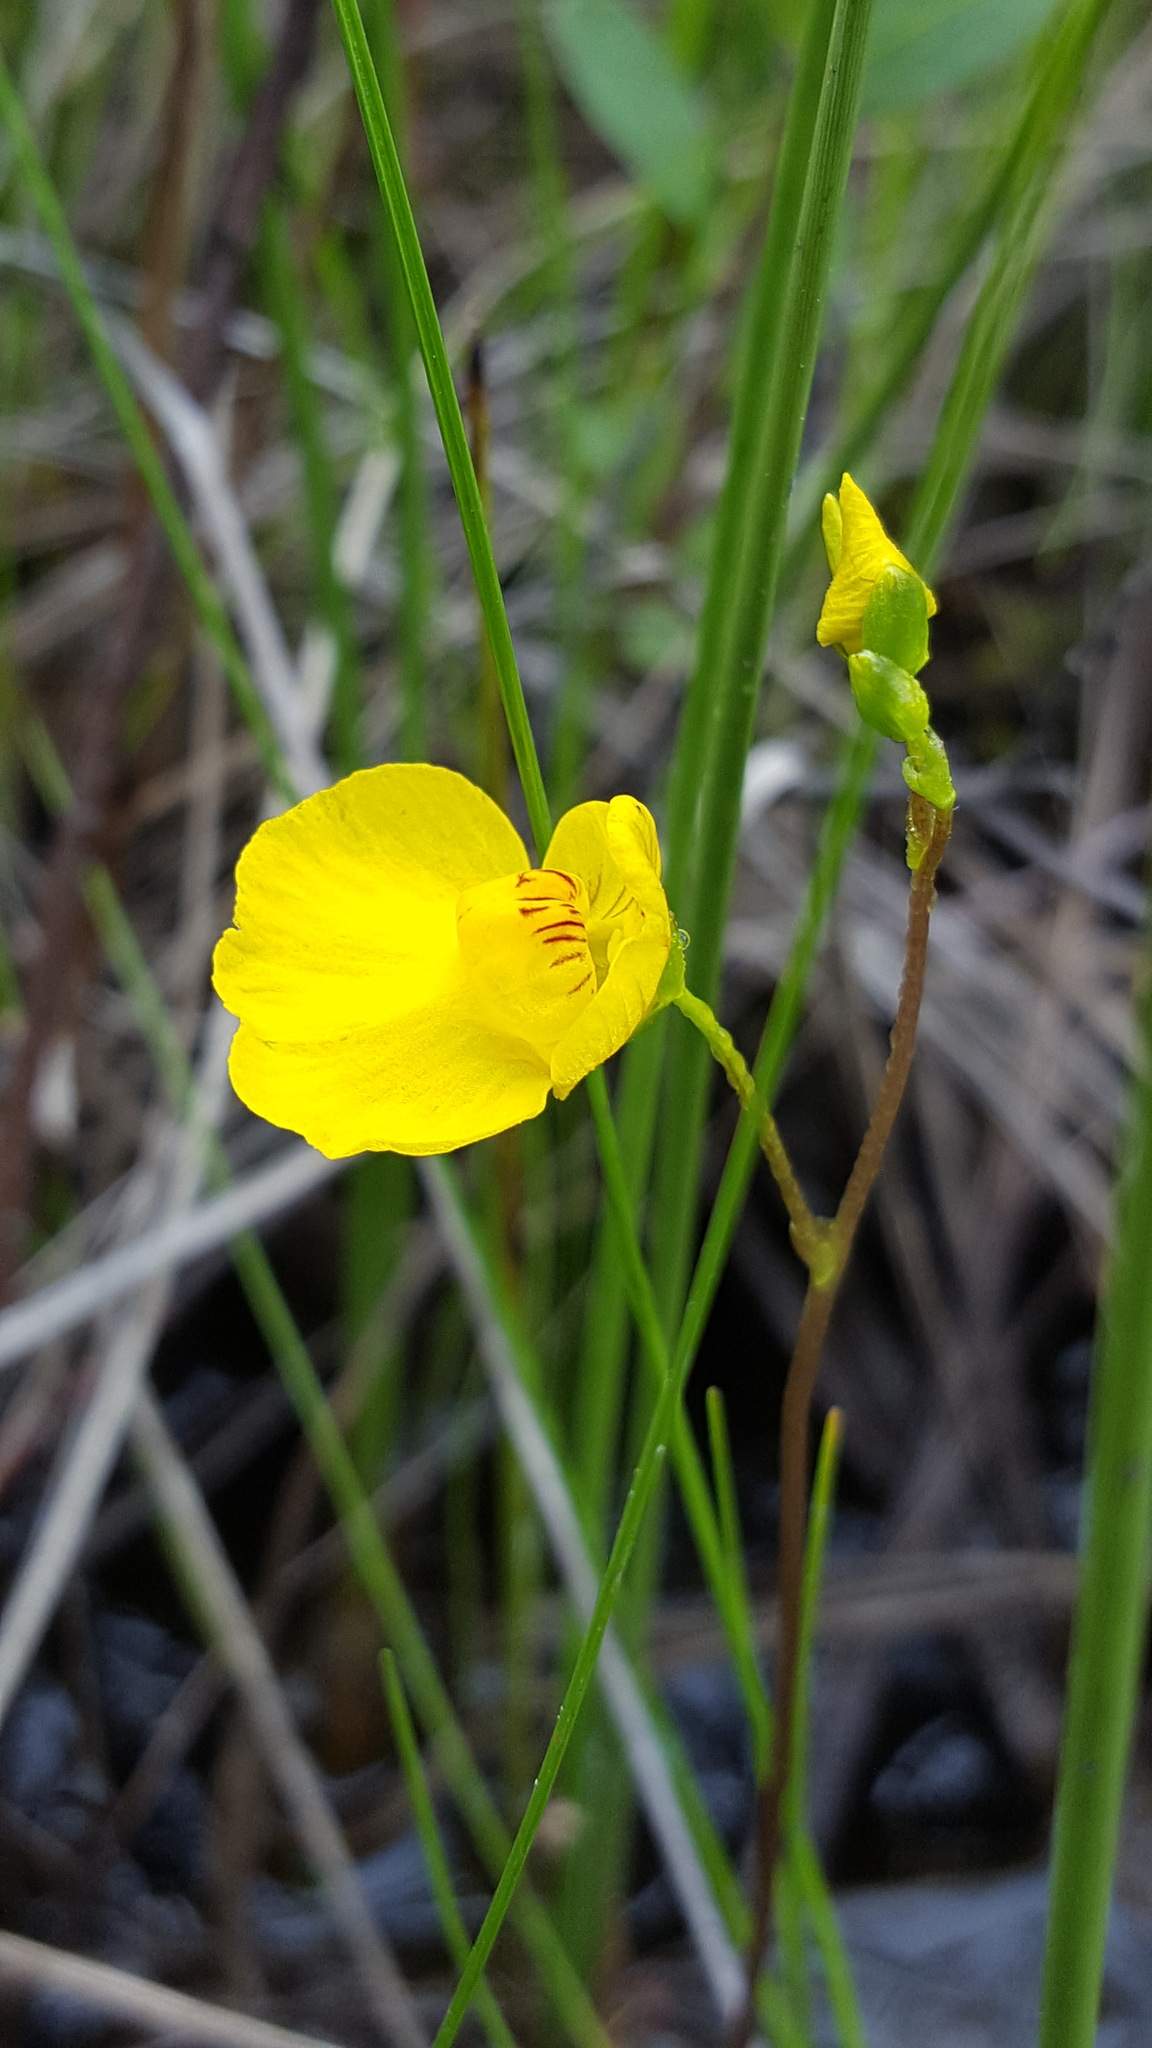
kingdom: Plantae
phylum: Tracheophyta
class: Magnoliopsida
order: Lamiales
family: Lentibulariaceae
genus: Utricularia
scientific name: Utricularia intermedia
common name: Intermediate bladderwort
